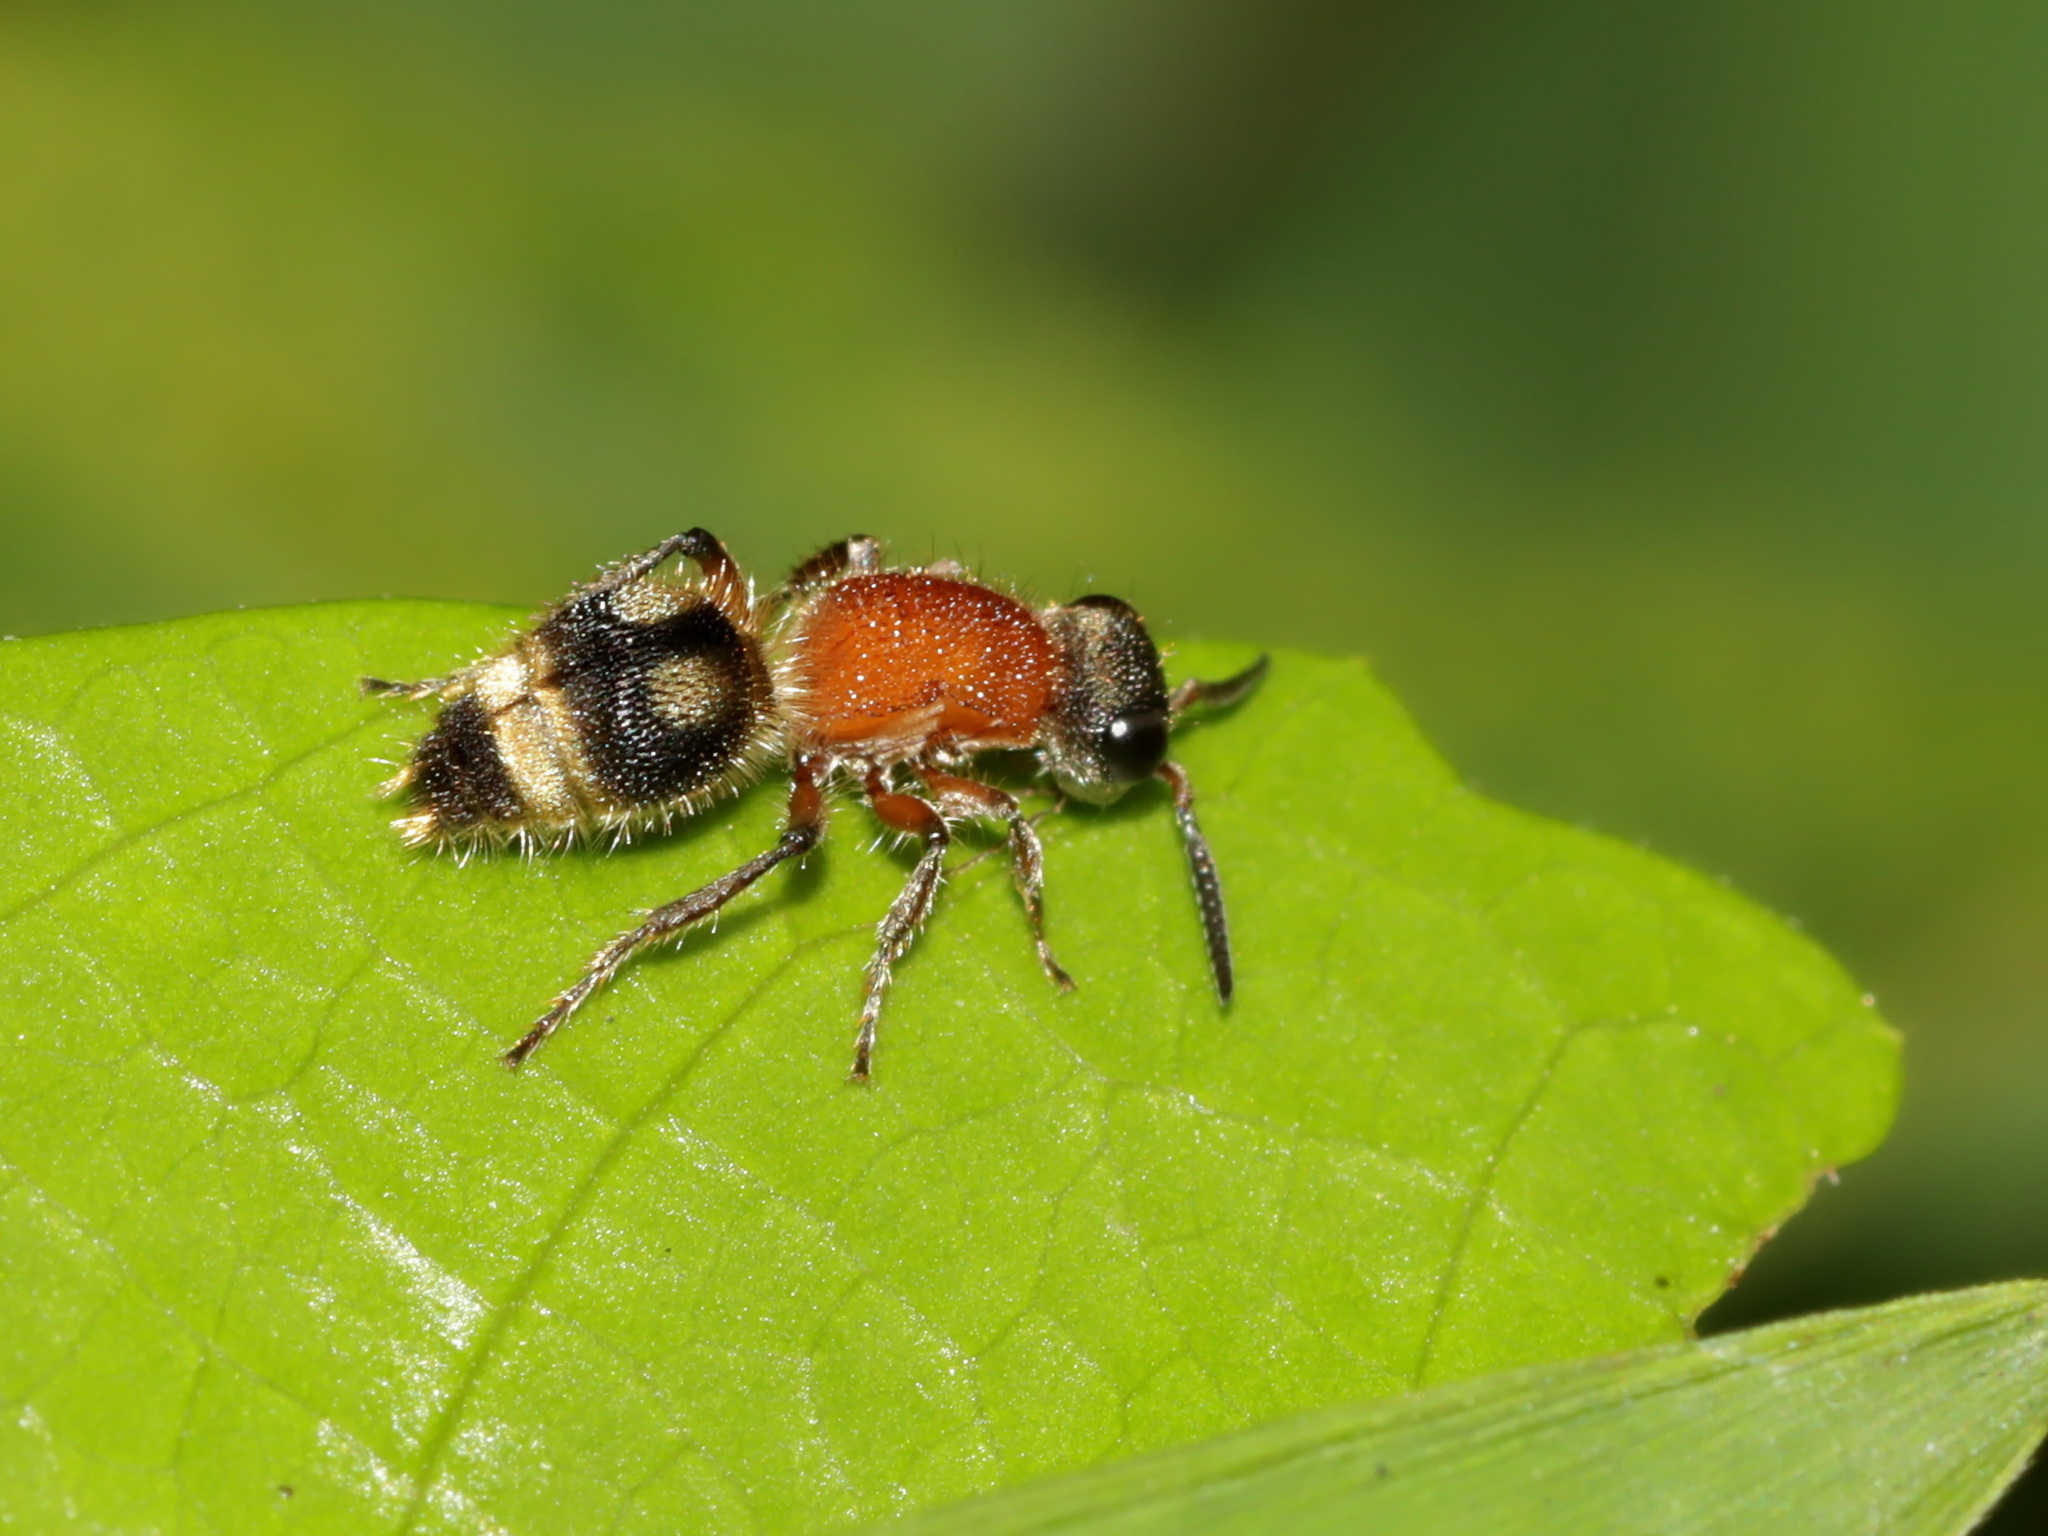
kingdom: Animalia
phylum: Arthropoda
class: Insecta
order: Hymenoptera
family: Mutillidae
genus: Orientidia
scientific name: Orientidia manleyi
